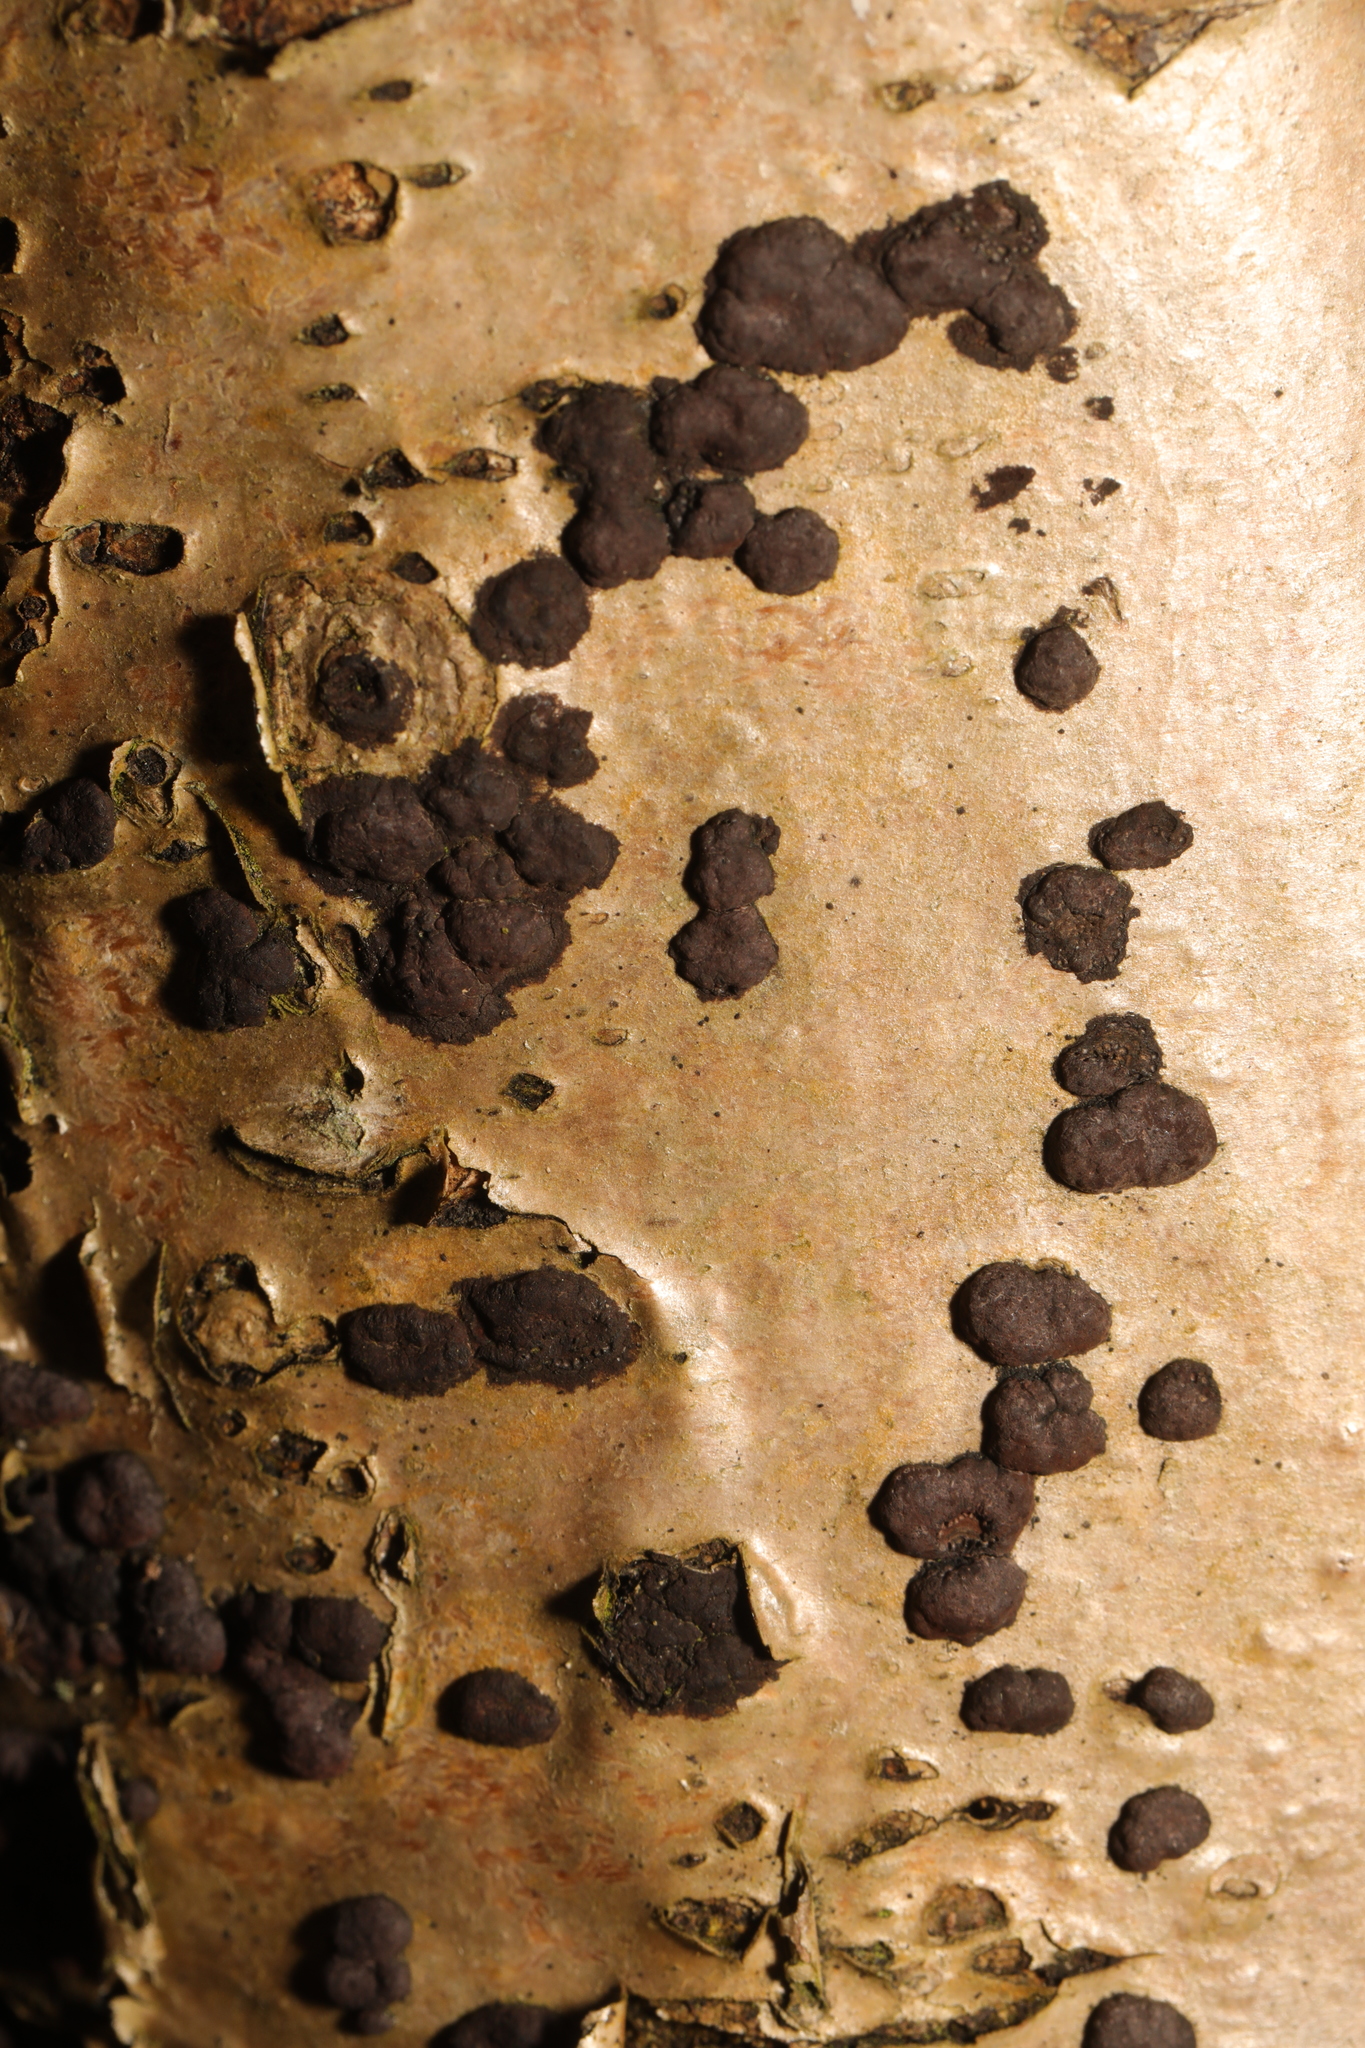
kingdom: Fungi
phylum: Ascomycota
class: Sordariomycetes
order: Xylariales
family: Hypoxylaceae
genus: Hypoxylon
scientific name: Hypoxylon fuscum
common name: Hazel woodwart
